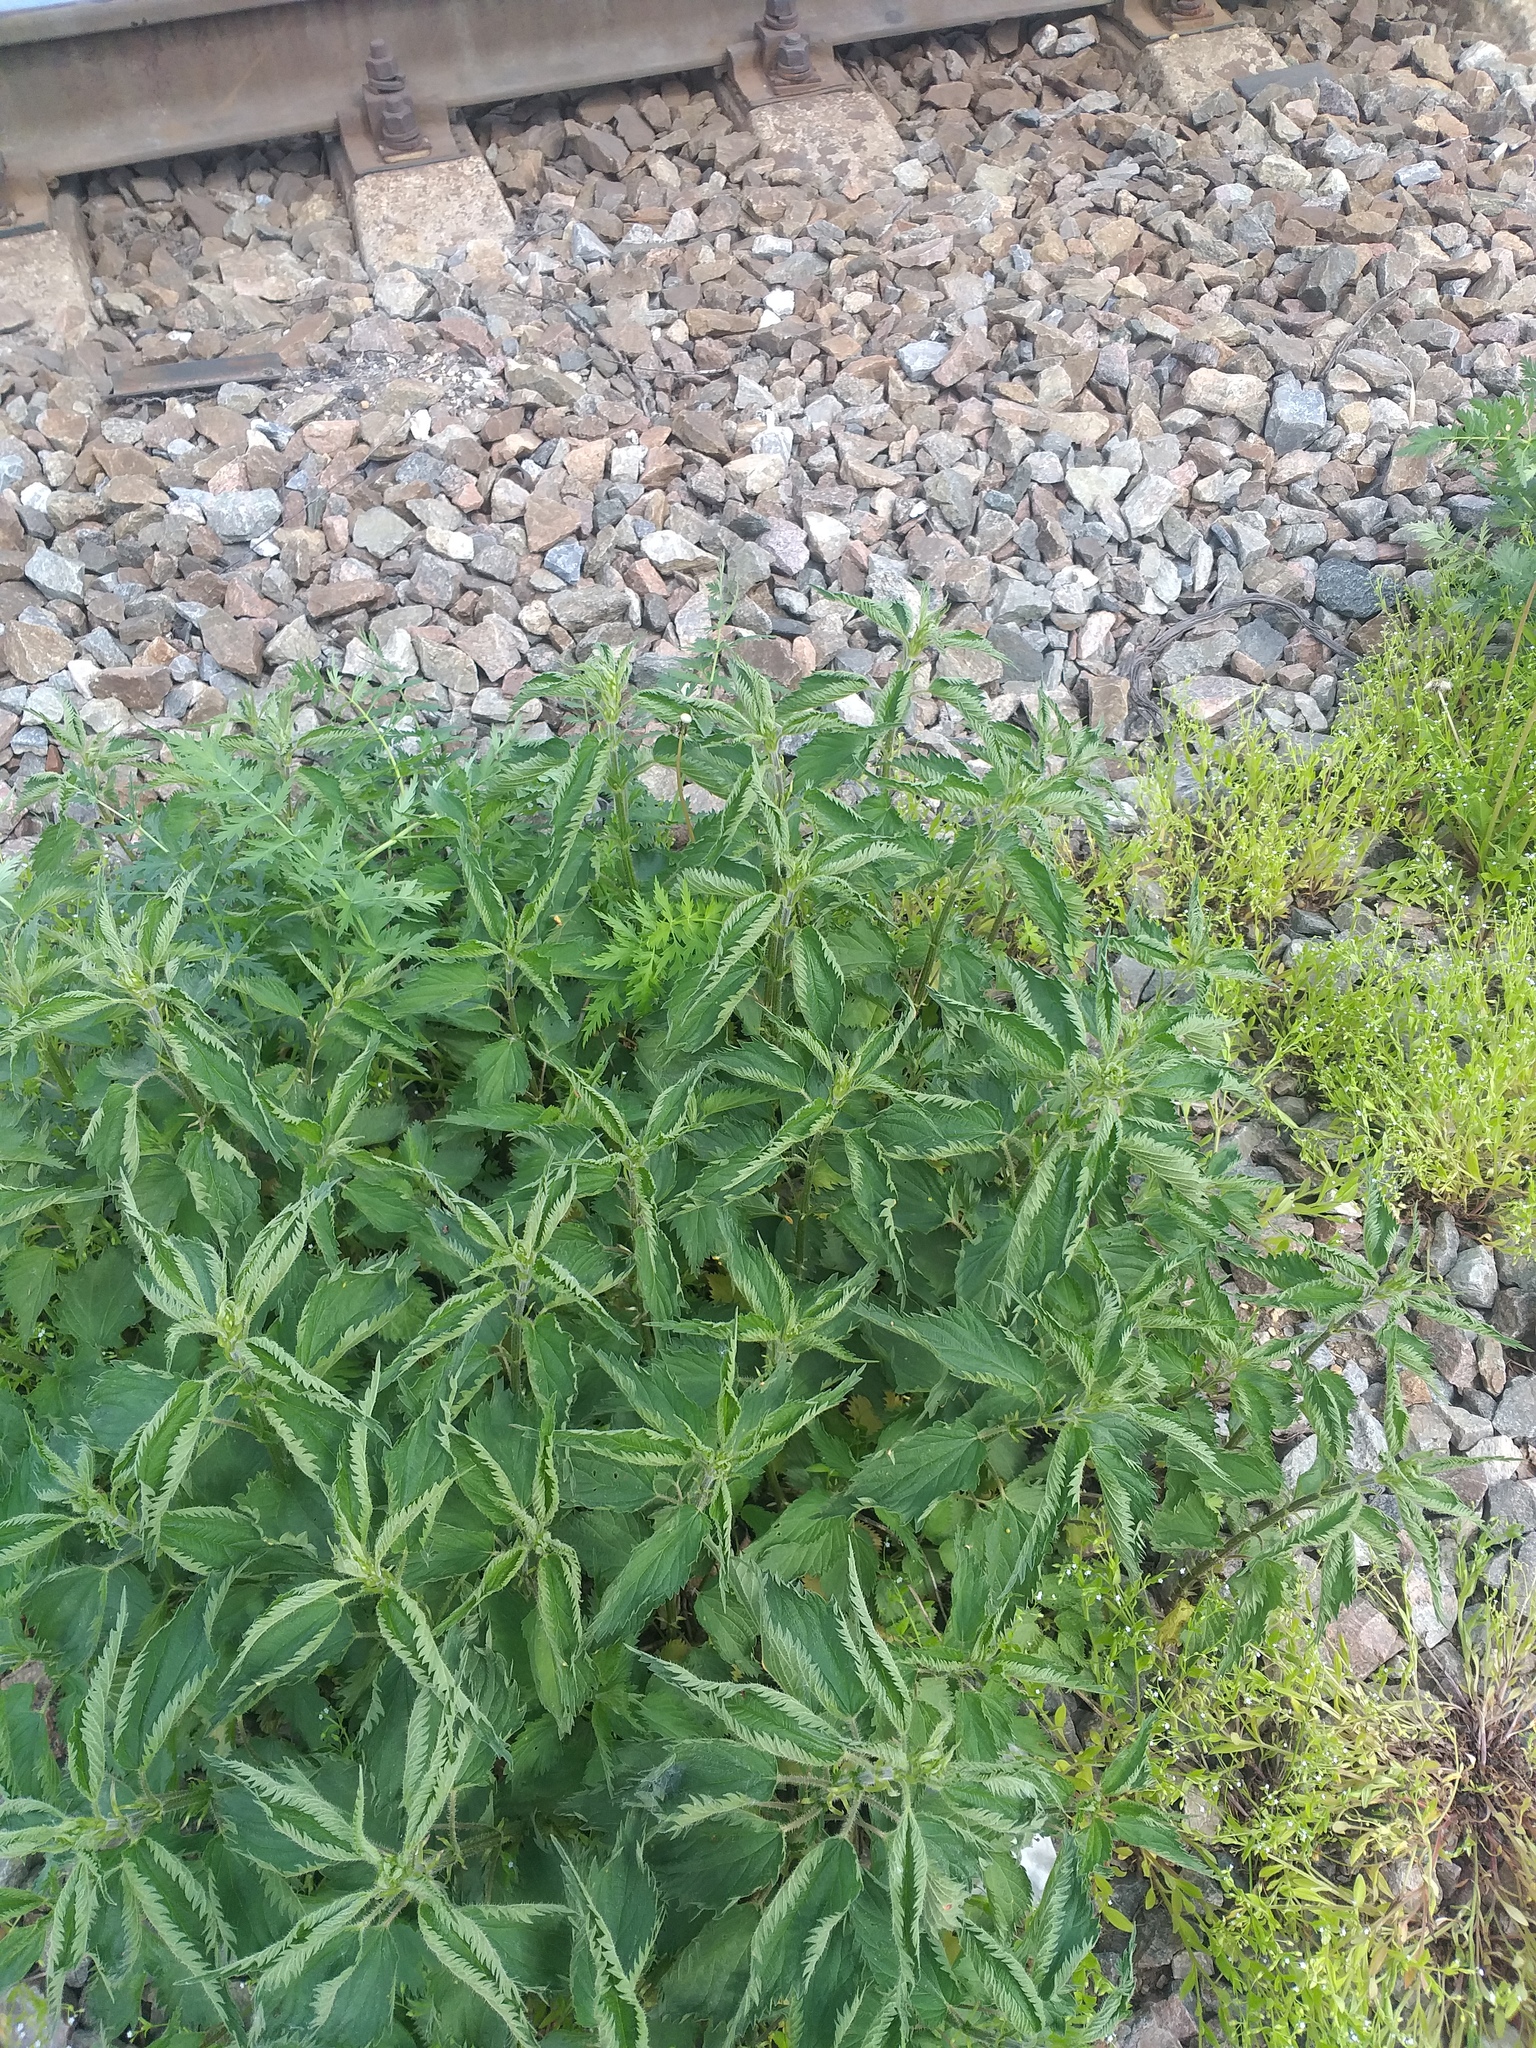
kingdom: Plantae
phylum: Tracheophyta
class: Magnoliopsida
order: Rosales
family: Urticaceae
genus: Urtica
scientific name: Urtica dioica
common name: Common nettle
